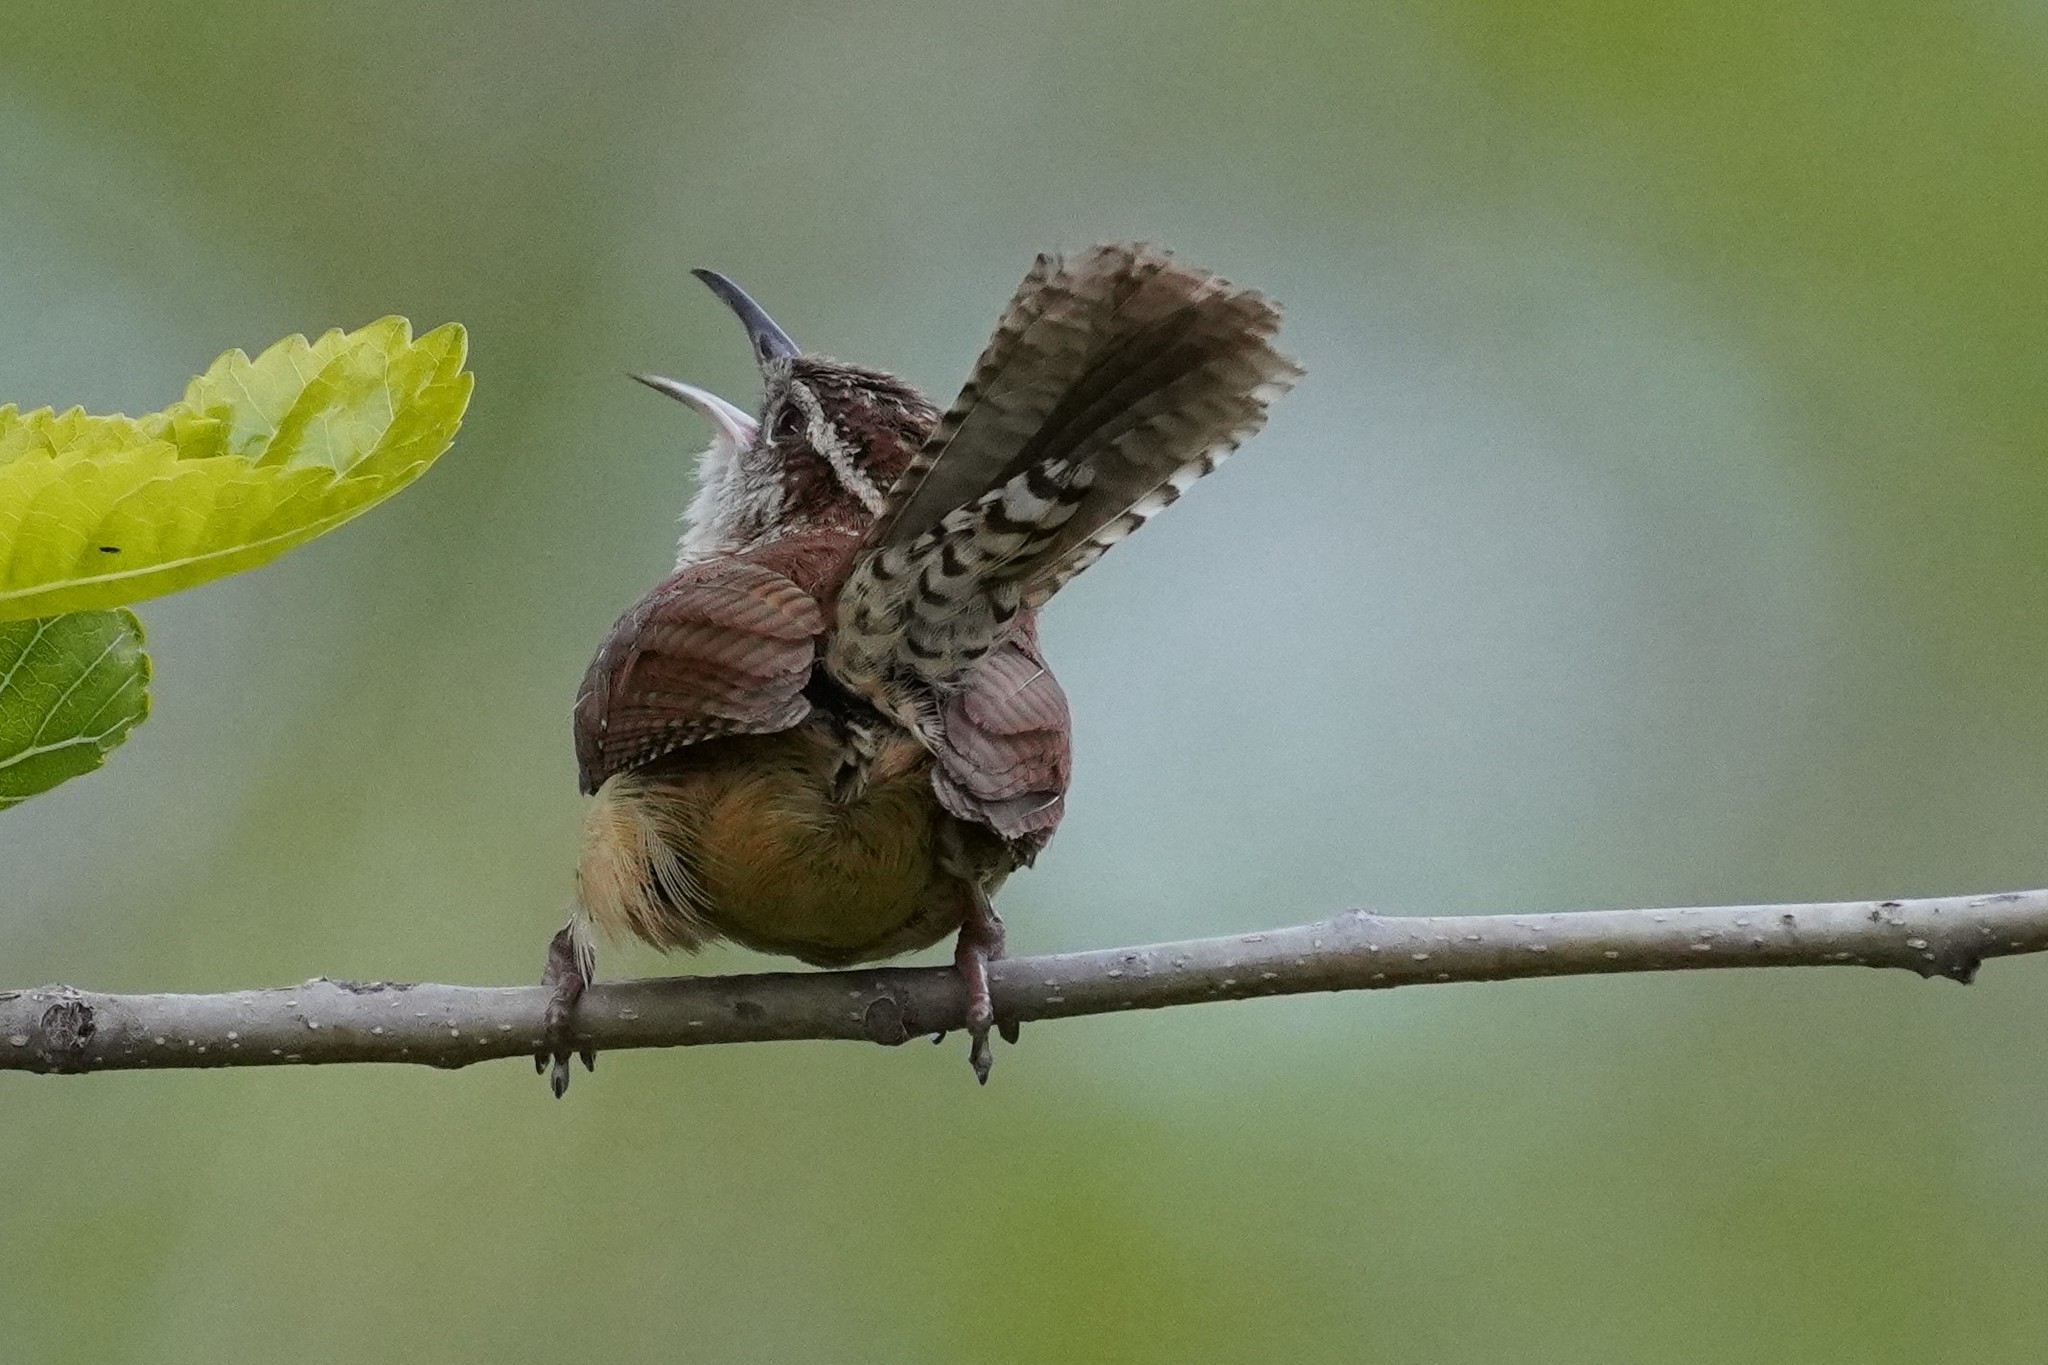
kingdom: Animalia
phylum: Chordata
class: Aves
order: Passeriformes
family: Troglodytidae
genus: Thryothorus
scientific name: Thryothorus ludovicianus
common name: Carolina wren
